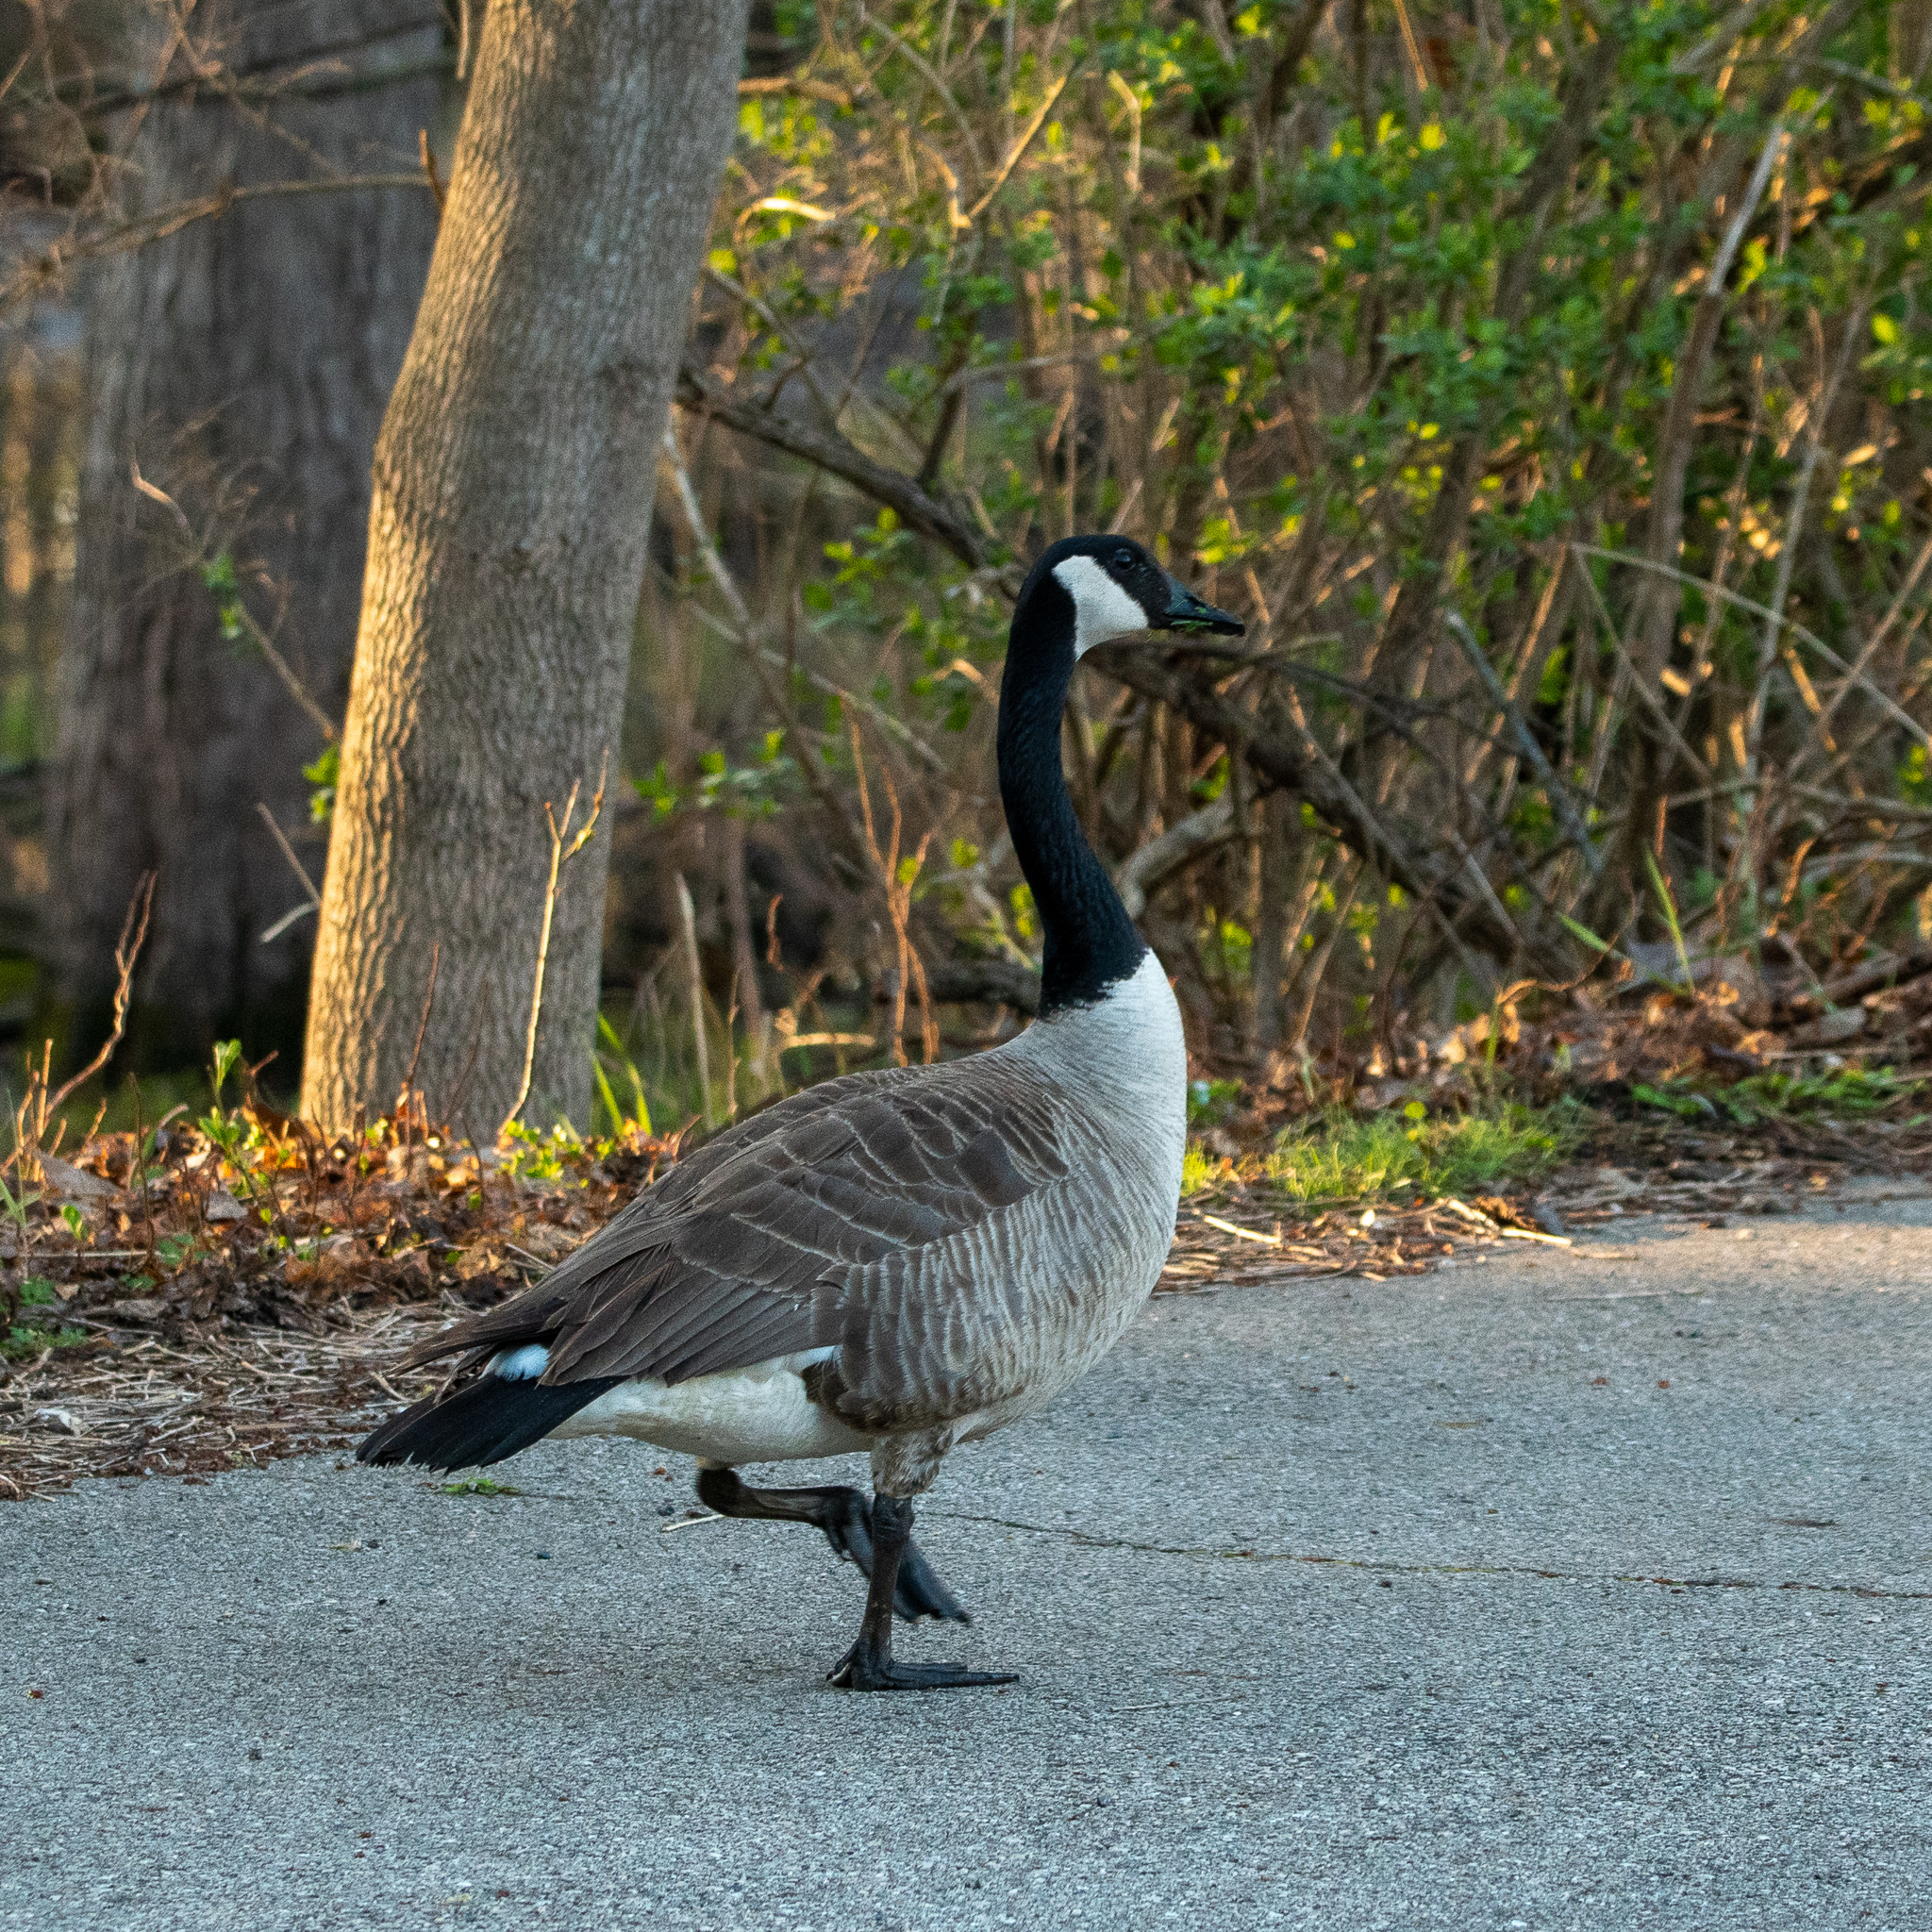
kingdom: Animalia
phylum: Chordata
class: Aves
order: Anseriformes
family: Anatidae
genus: Branta
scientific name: Branta canadensis
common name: Canada goose
